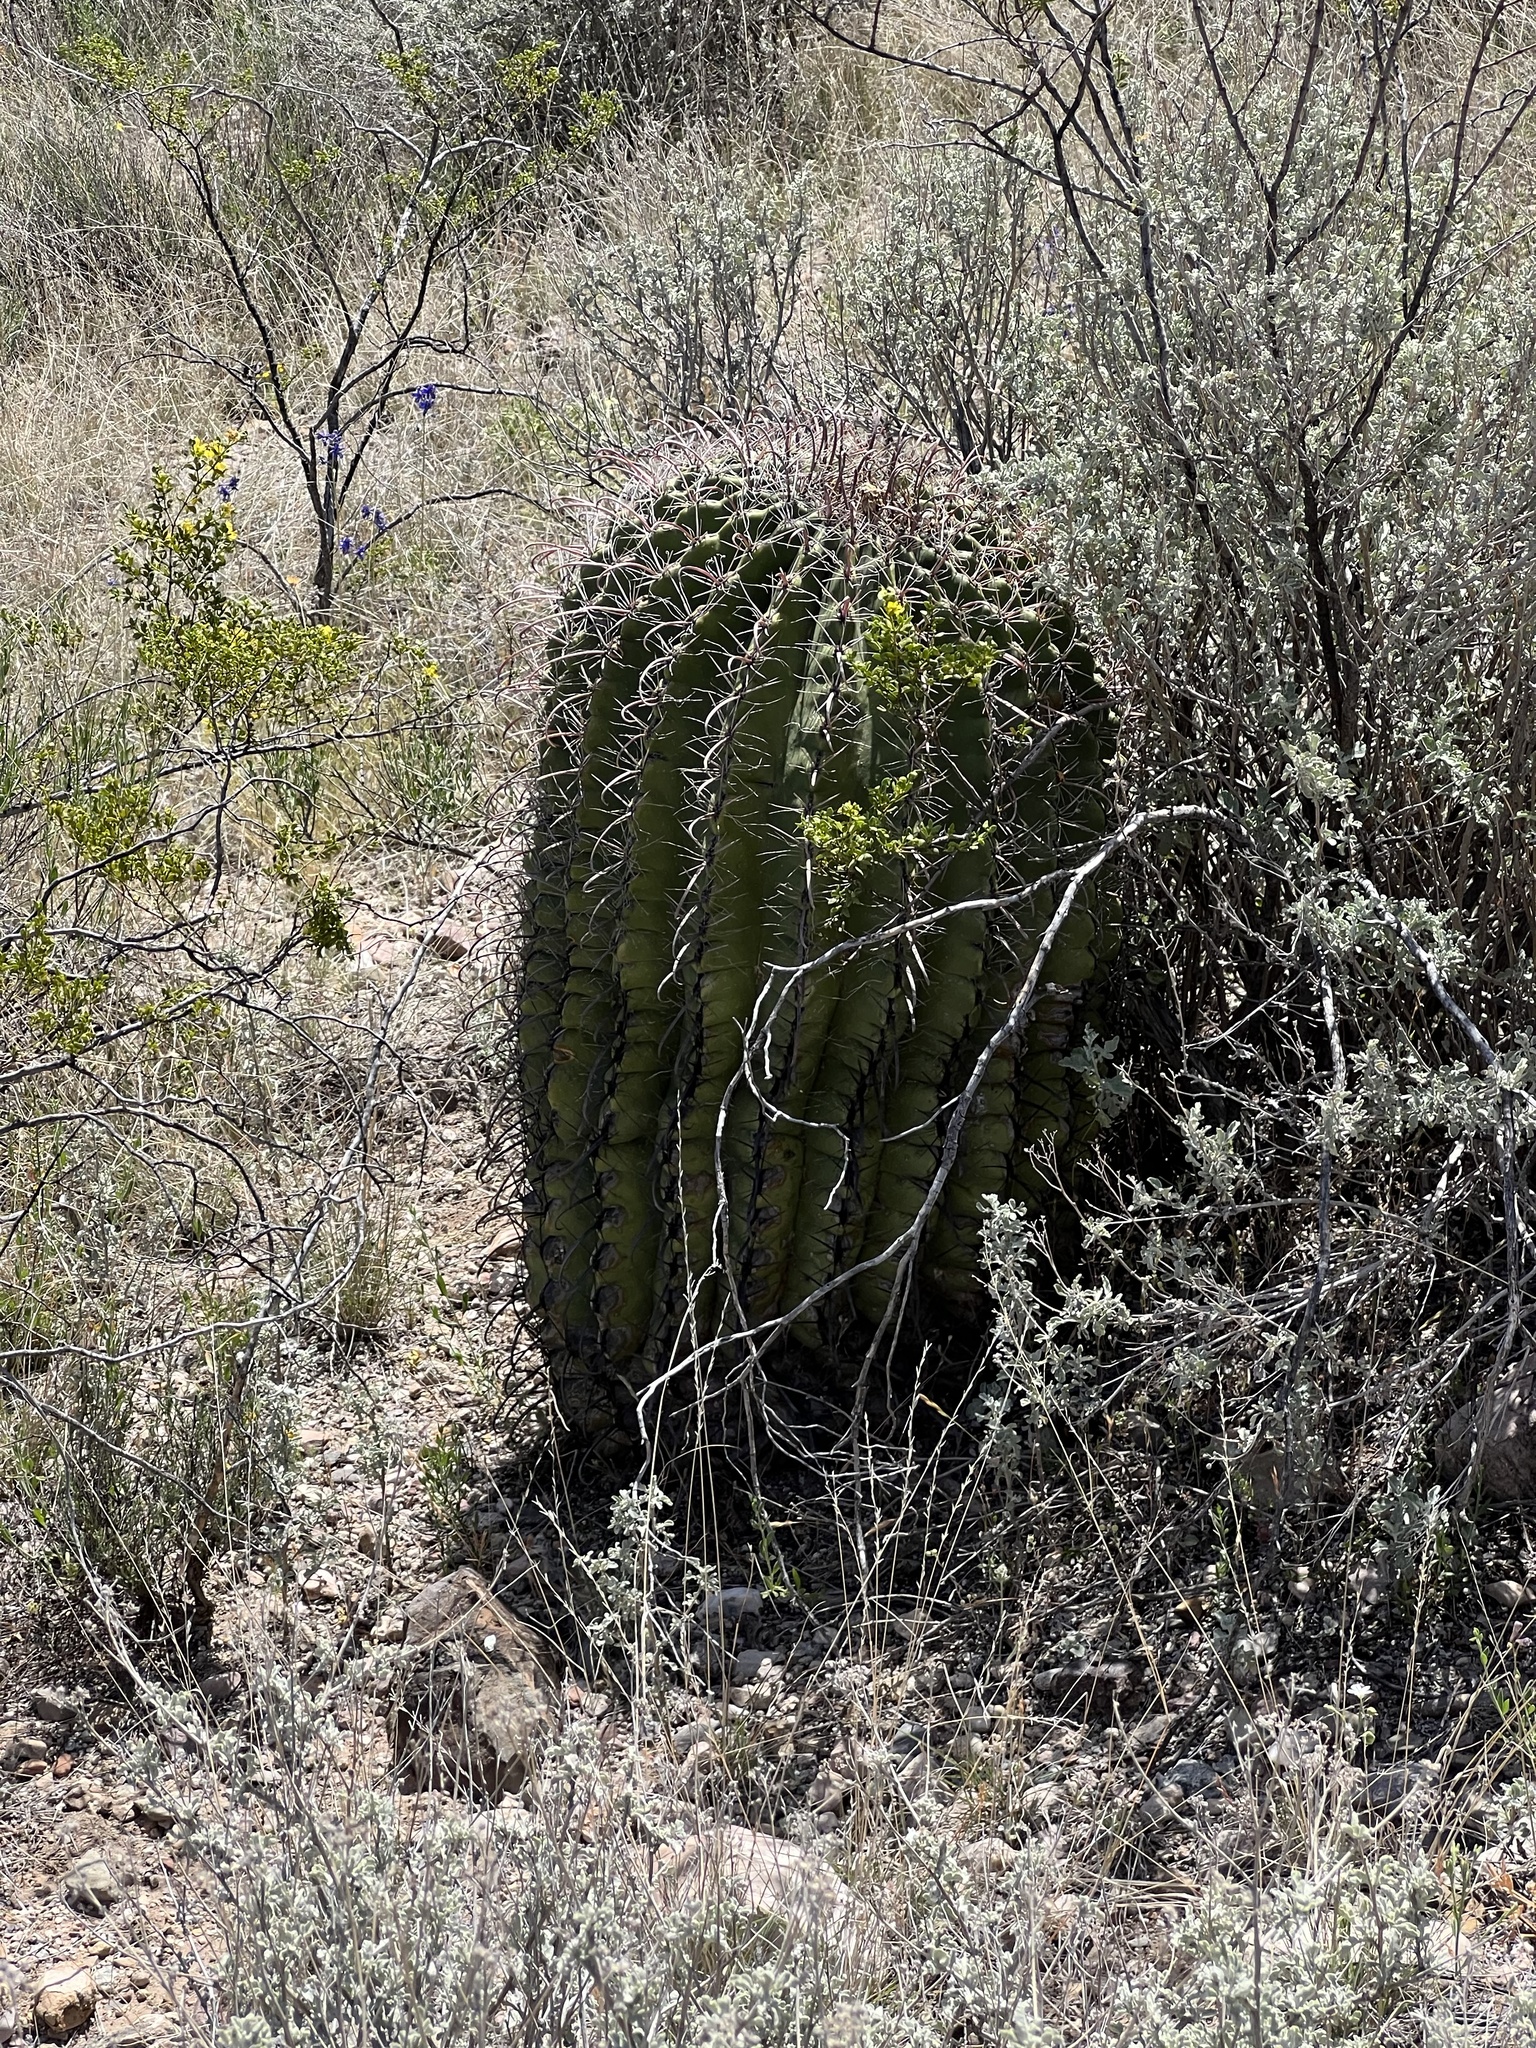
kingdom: Plantae
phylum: Tracheophyta
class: Magnoliopsida
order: Caryophyllales
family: Cactaceae
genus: Ferocactus
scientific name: Ferocactus wislizeni
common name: Candy barrel cactus
